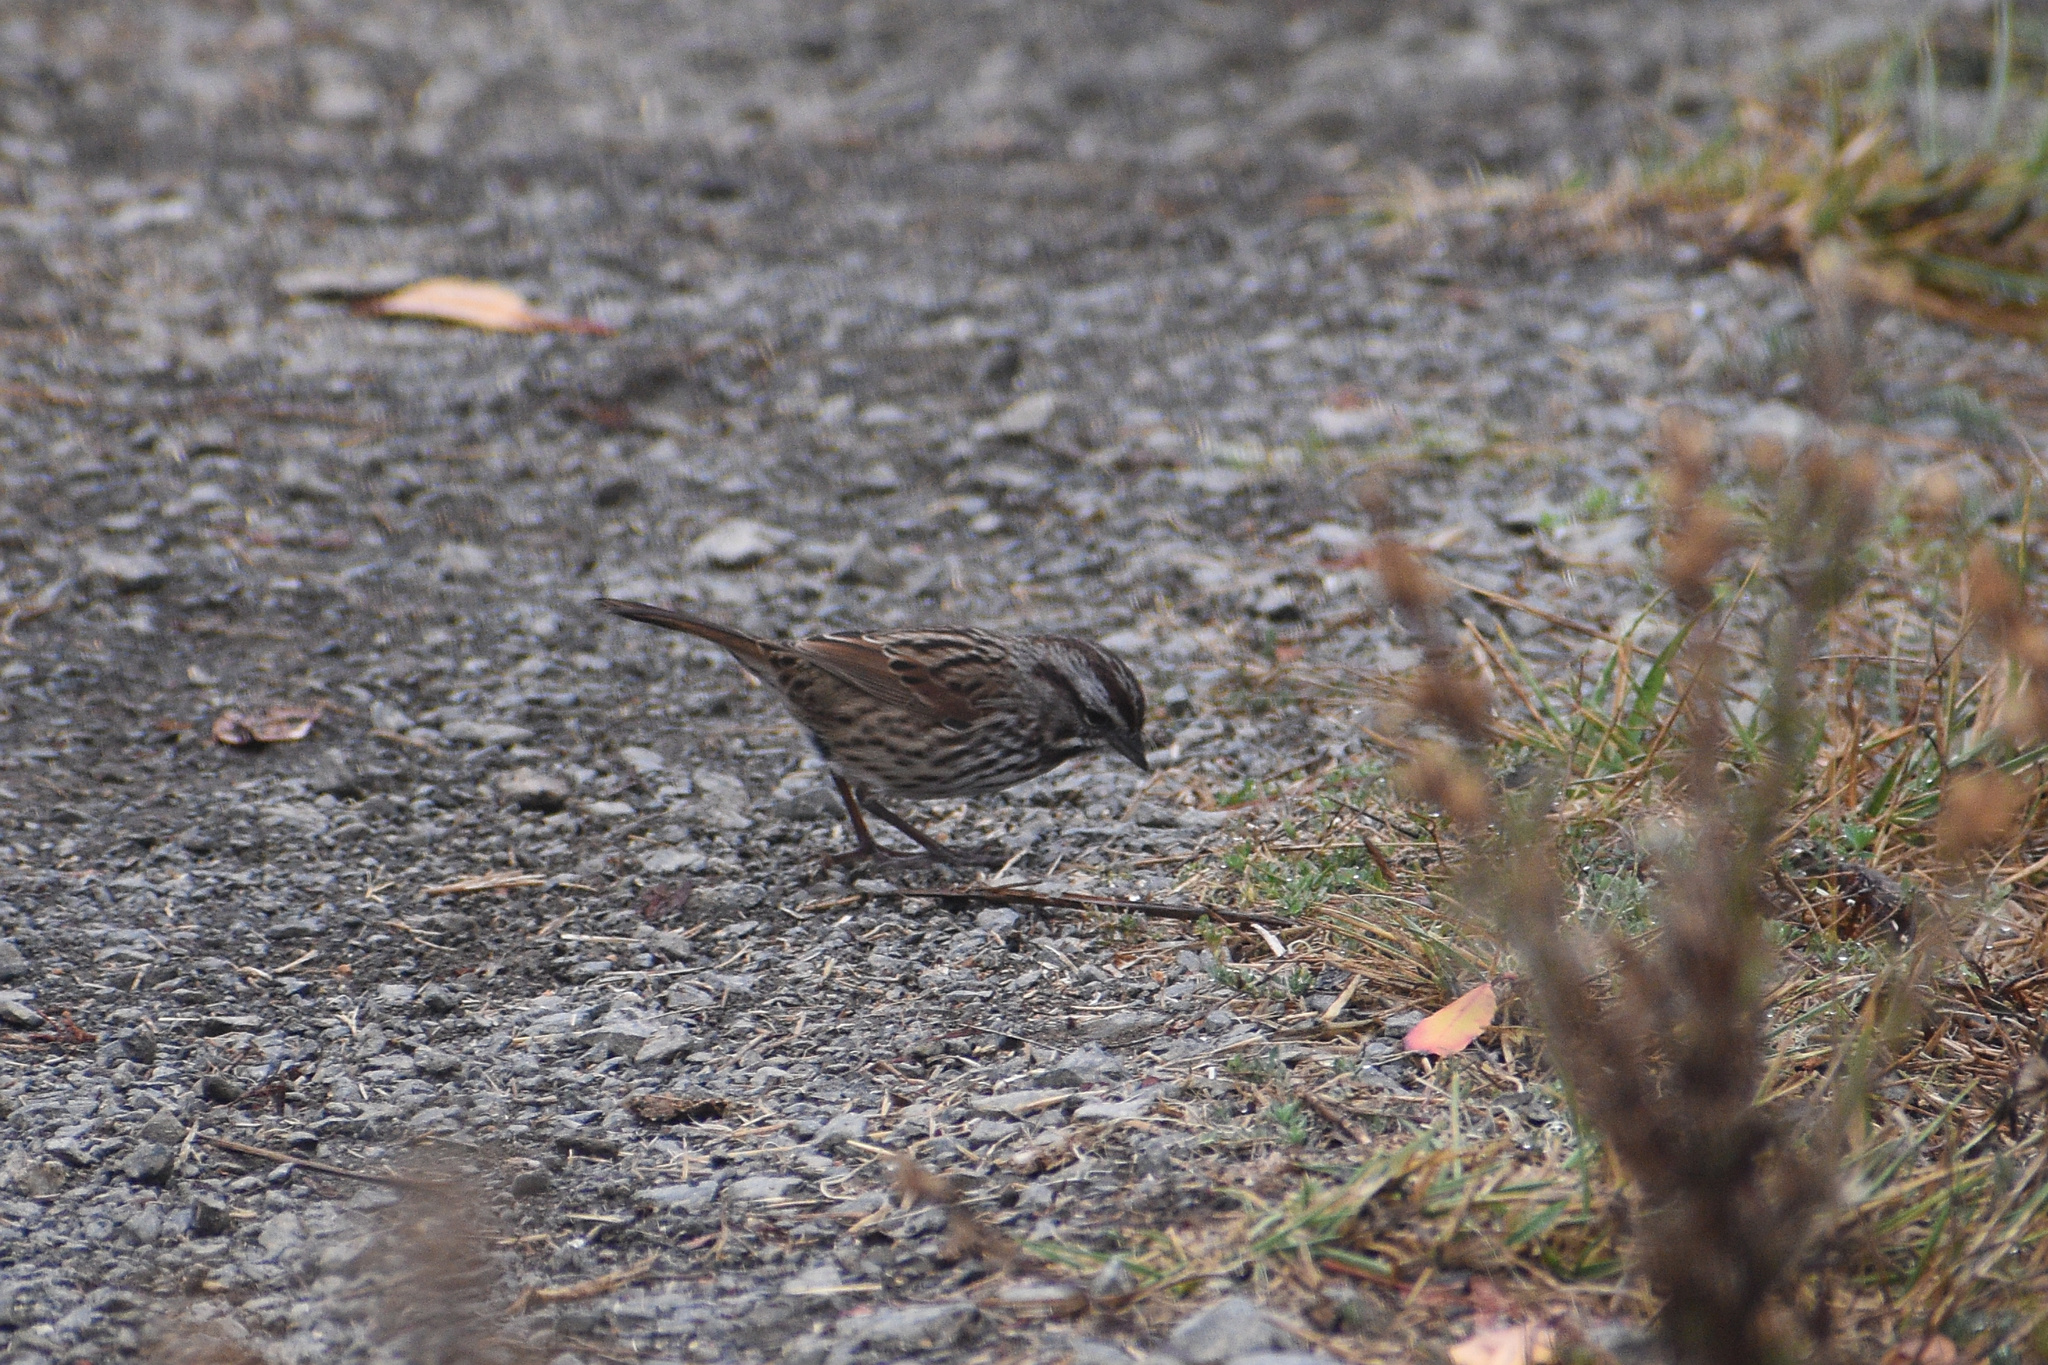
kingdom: Animalia
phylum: Chordata
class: Aves
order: Passeriformes
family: Passerellidae
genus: Melospiza
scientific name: Melospiza melodia
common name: Song sparrow
